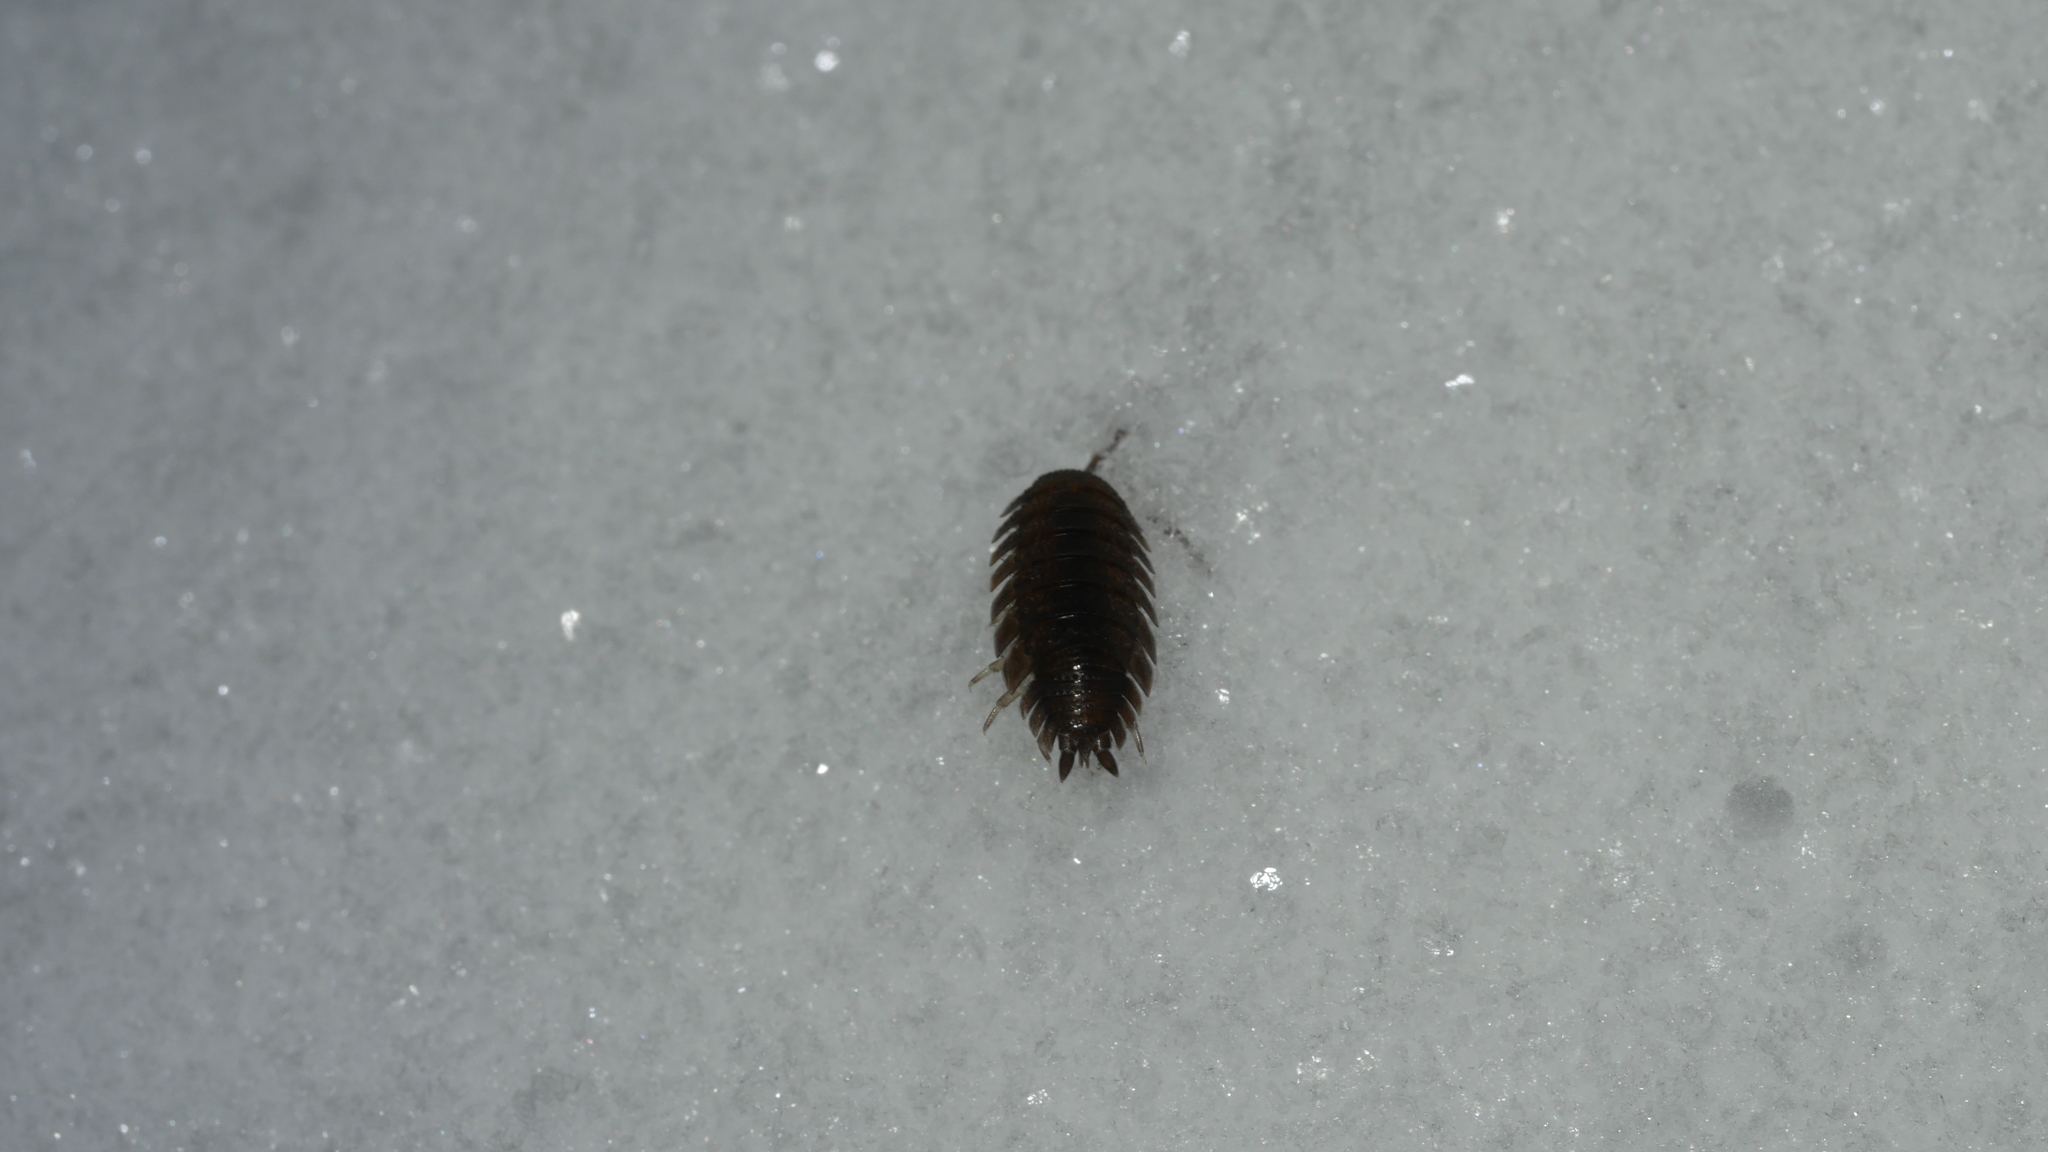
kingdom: Animalia
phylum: Arthropoda
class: Malacostraca
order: Isopoda
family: Porcellionidae
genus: Porcellio
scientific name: Porcellio scaber
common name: Common rough woodlouse
